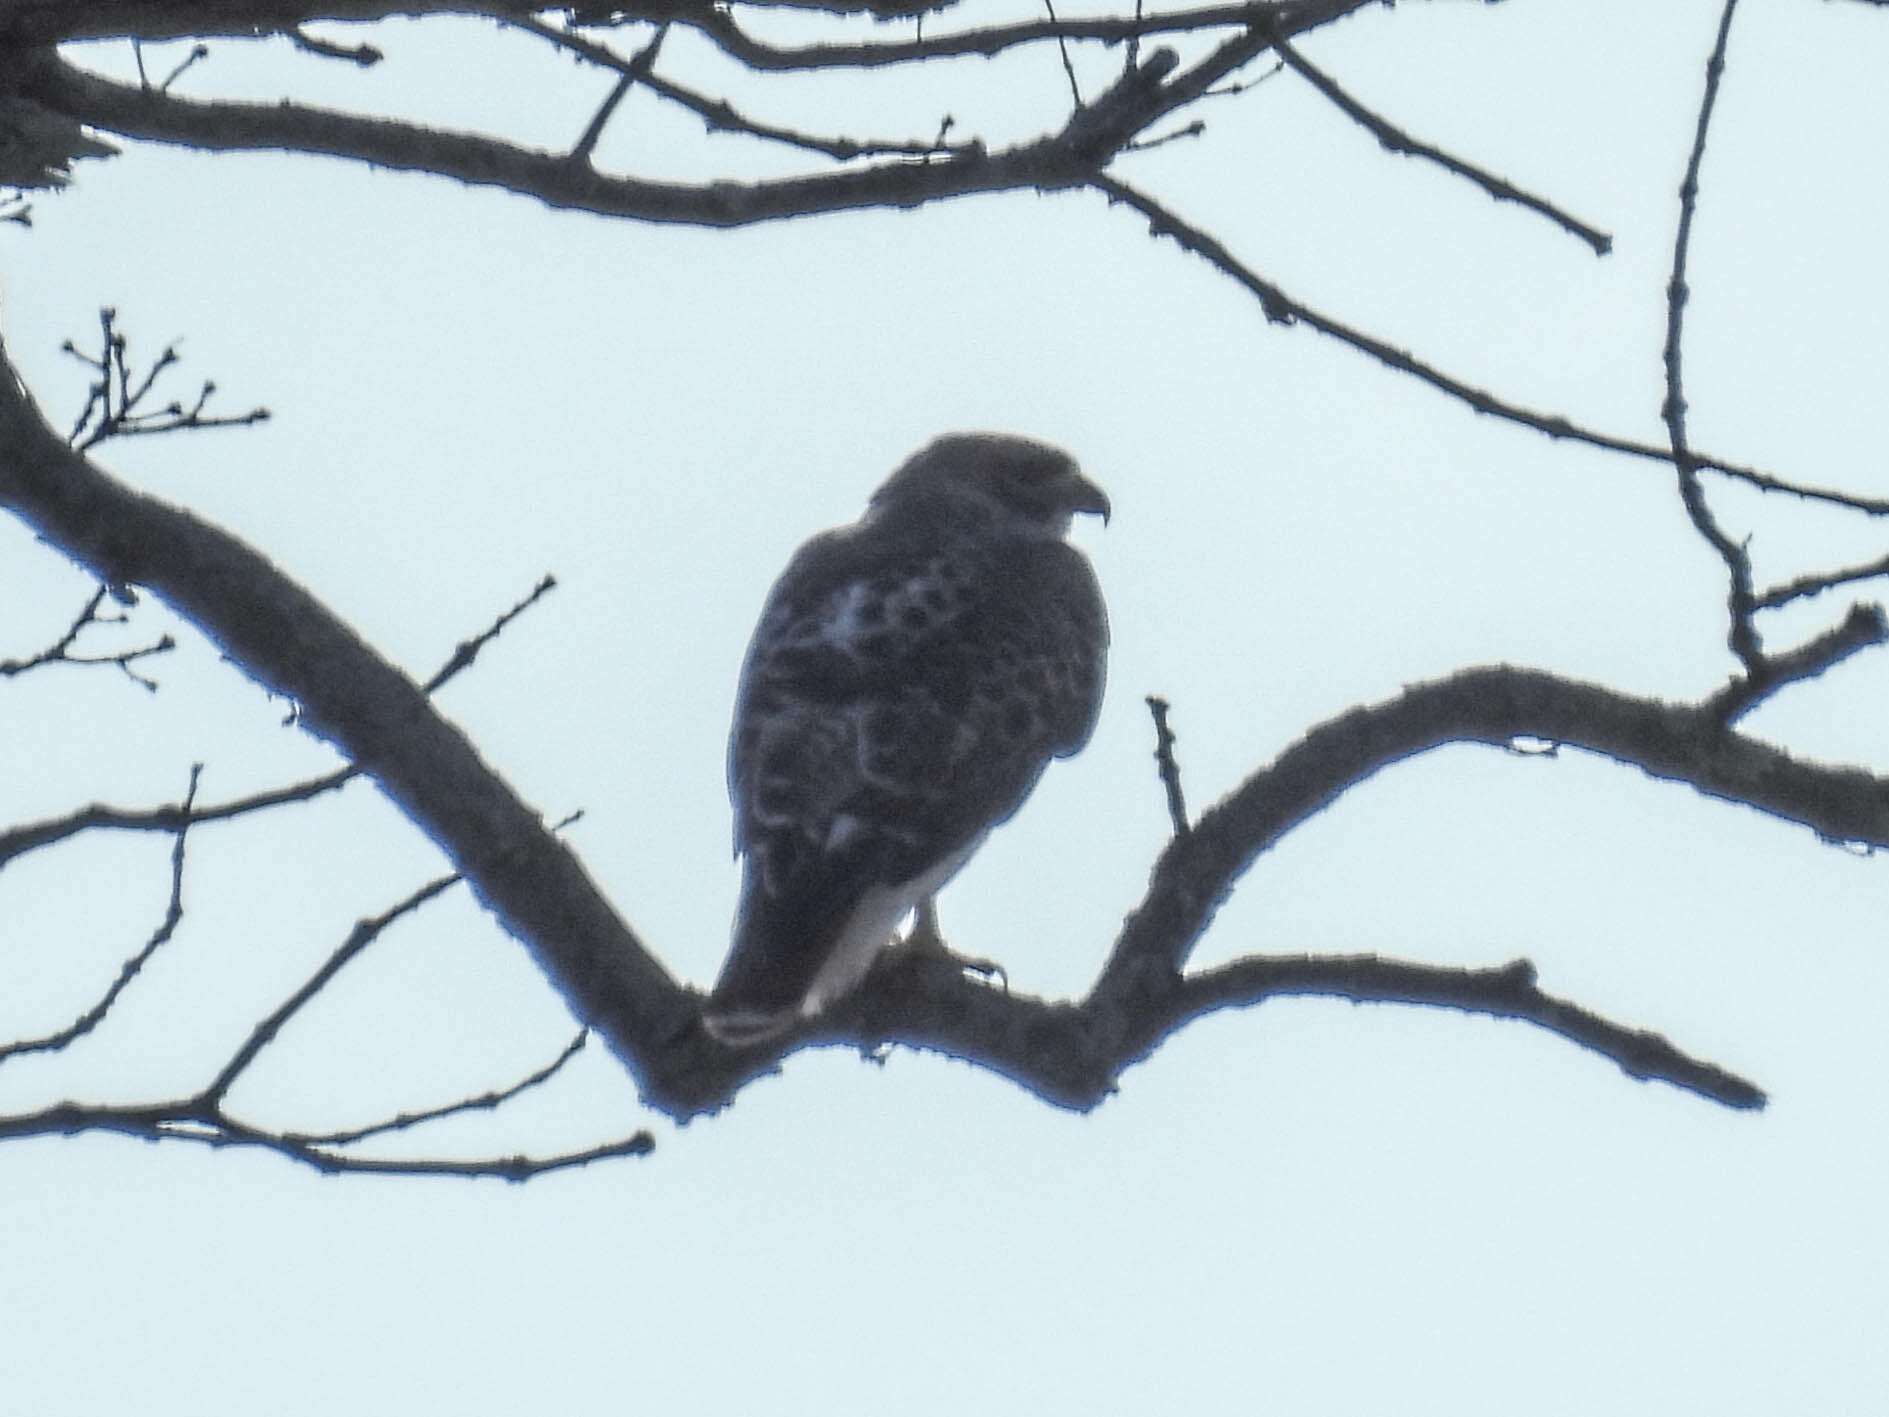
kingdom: Animalia
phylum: Chordata
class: Aves
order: Accipitriformes
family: Accipitridae
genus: Buteo
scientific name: Buteo jamaicensis
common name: Red-tailed hawk
